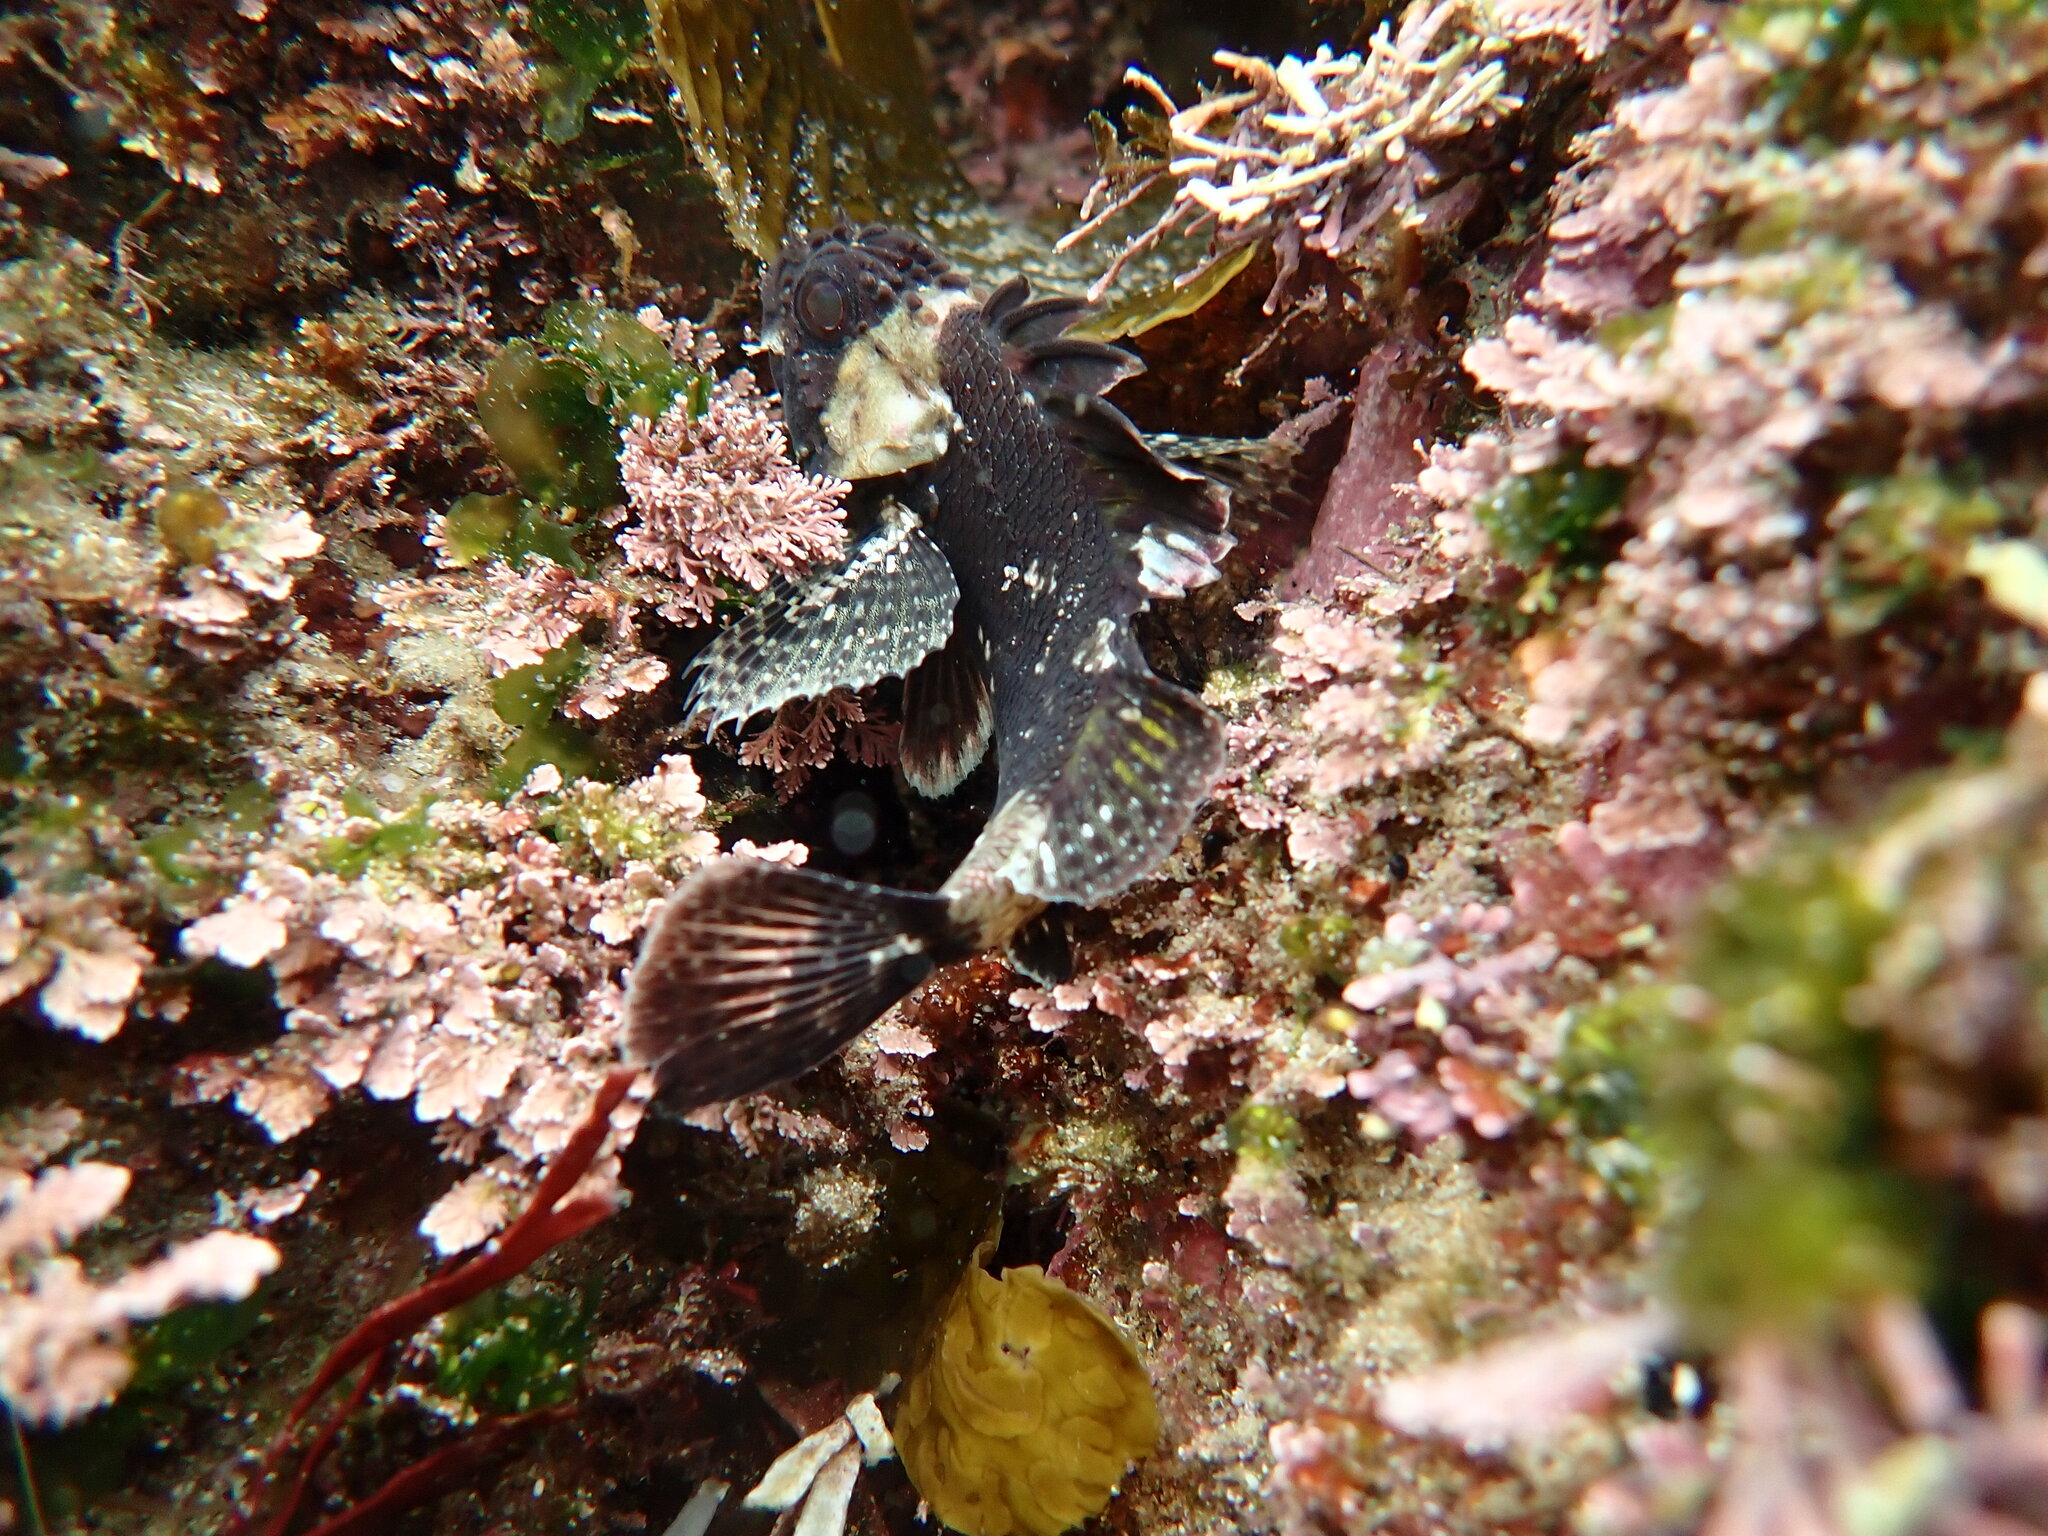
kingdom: Animalia
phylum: Chordata
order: Scorpaeniformes
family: Tetrarogidae
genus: Centropogon
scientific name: Centropogon australis
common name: Fortescue
